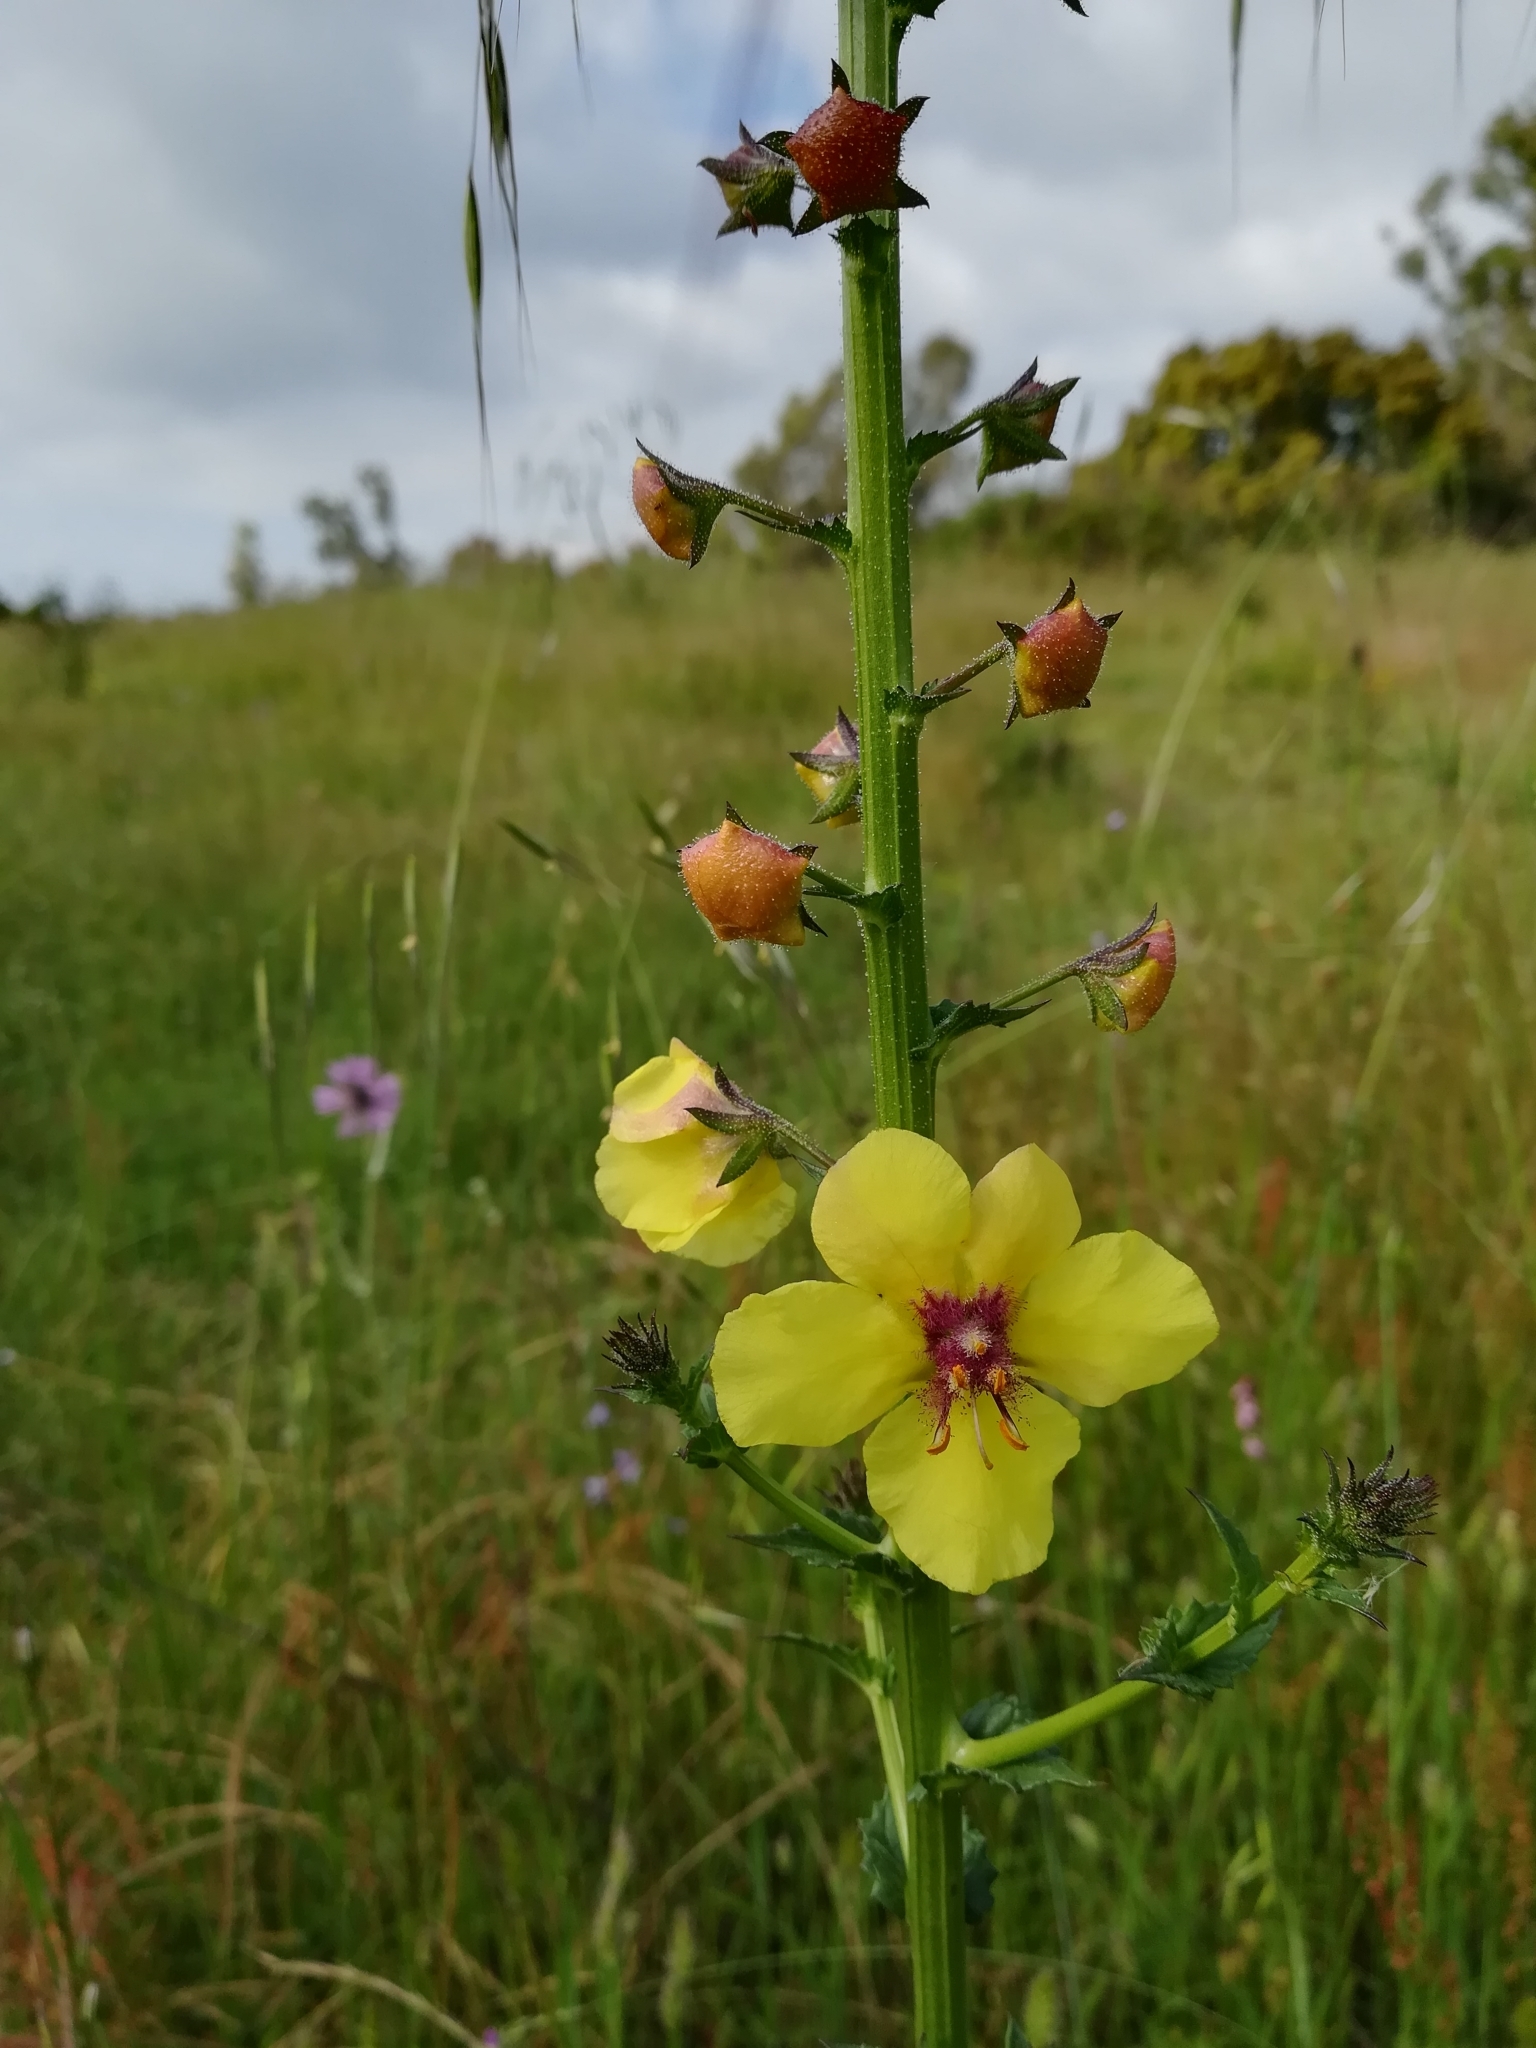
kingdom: Plantae
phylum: Tracheophyta
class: Magnoliopsida
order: Lamiales
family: Scrophulariaceae
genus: Verbascum
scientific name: Verbascum blattaria
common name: Moth mullein
